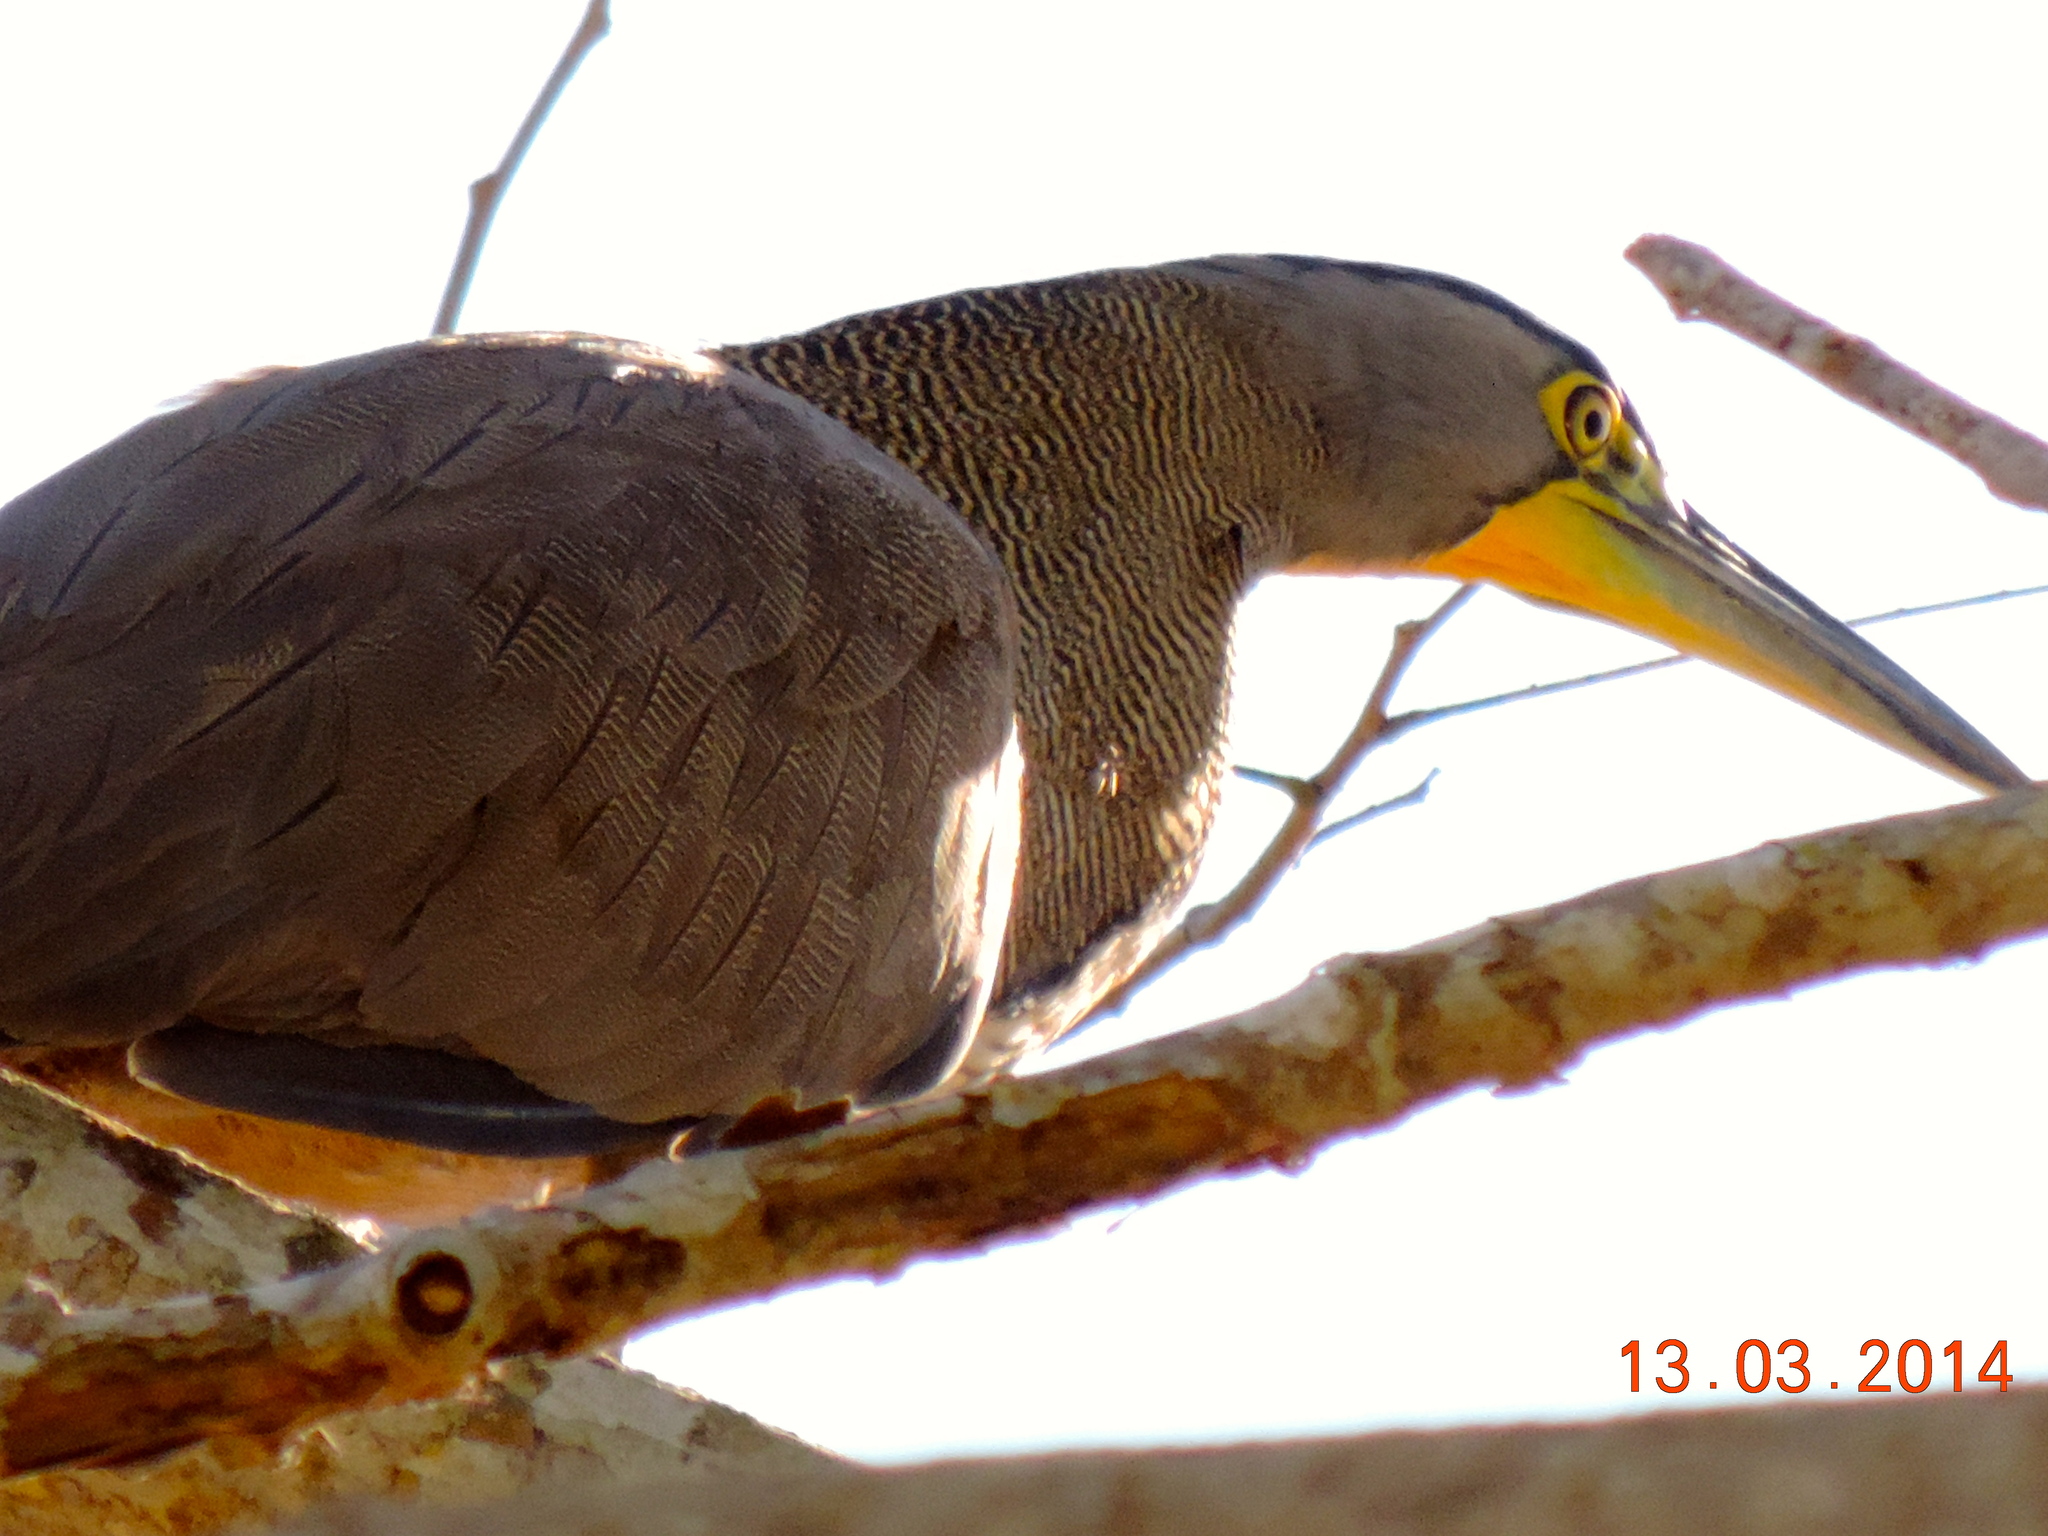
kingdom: Animalia
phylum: Chordata
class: Aves
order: Pelecaniformes
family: Ardeidae
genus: Tigrisoma
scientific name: Tigrisoma mexicanum
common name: Bare-throated tiger-heron
